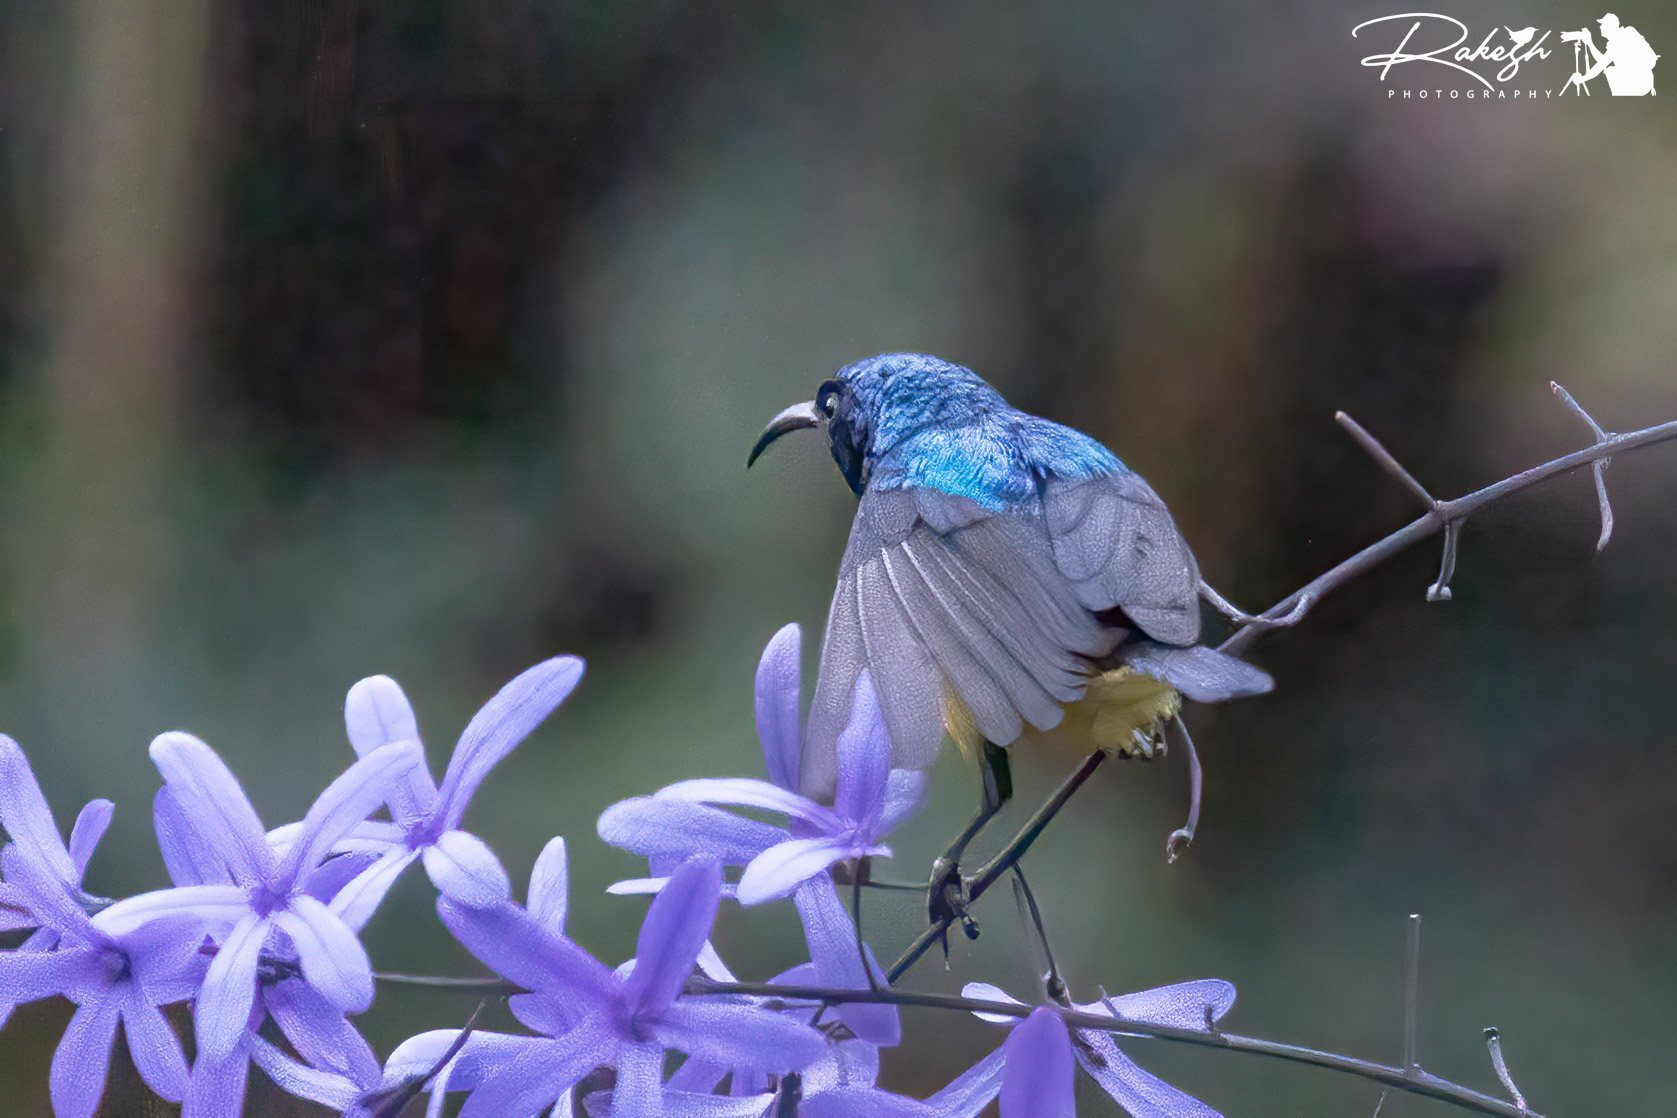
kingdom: Animalia
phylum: Chordata
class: Aves
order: Passeriformes
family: Nectariniidae
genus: Cinnyris
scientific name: Cinnyris venustus
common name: Variable sunbird
